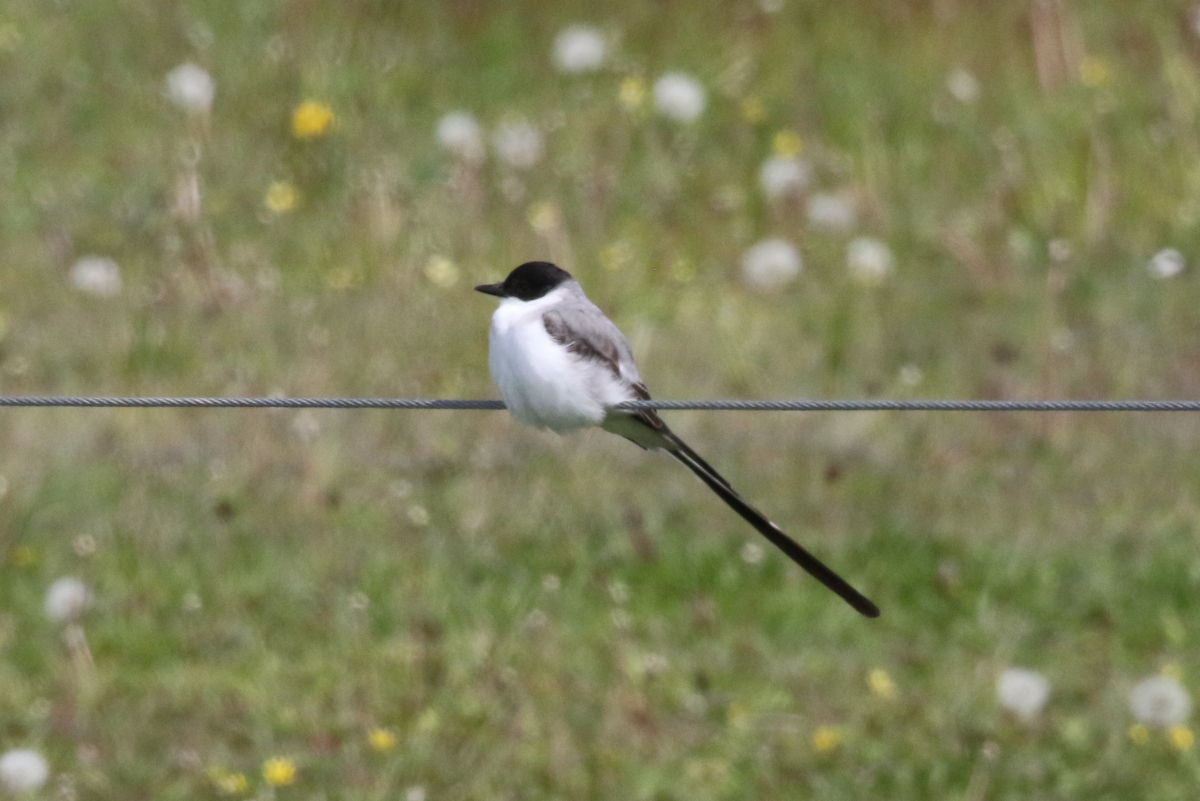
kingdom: Animalia
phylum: Chordata
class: Aves
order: Passeriformes
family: Tyrannidae
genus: Tyrannus
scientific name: Tyrannus savana
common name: Fork-tailed flycatcher
